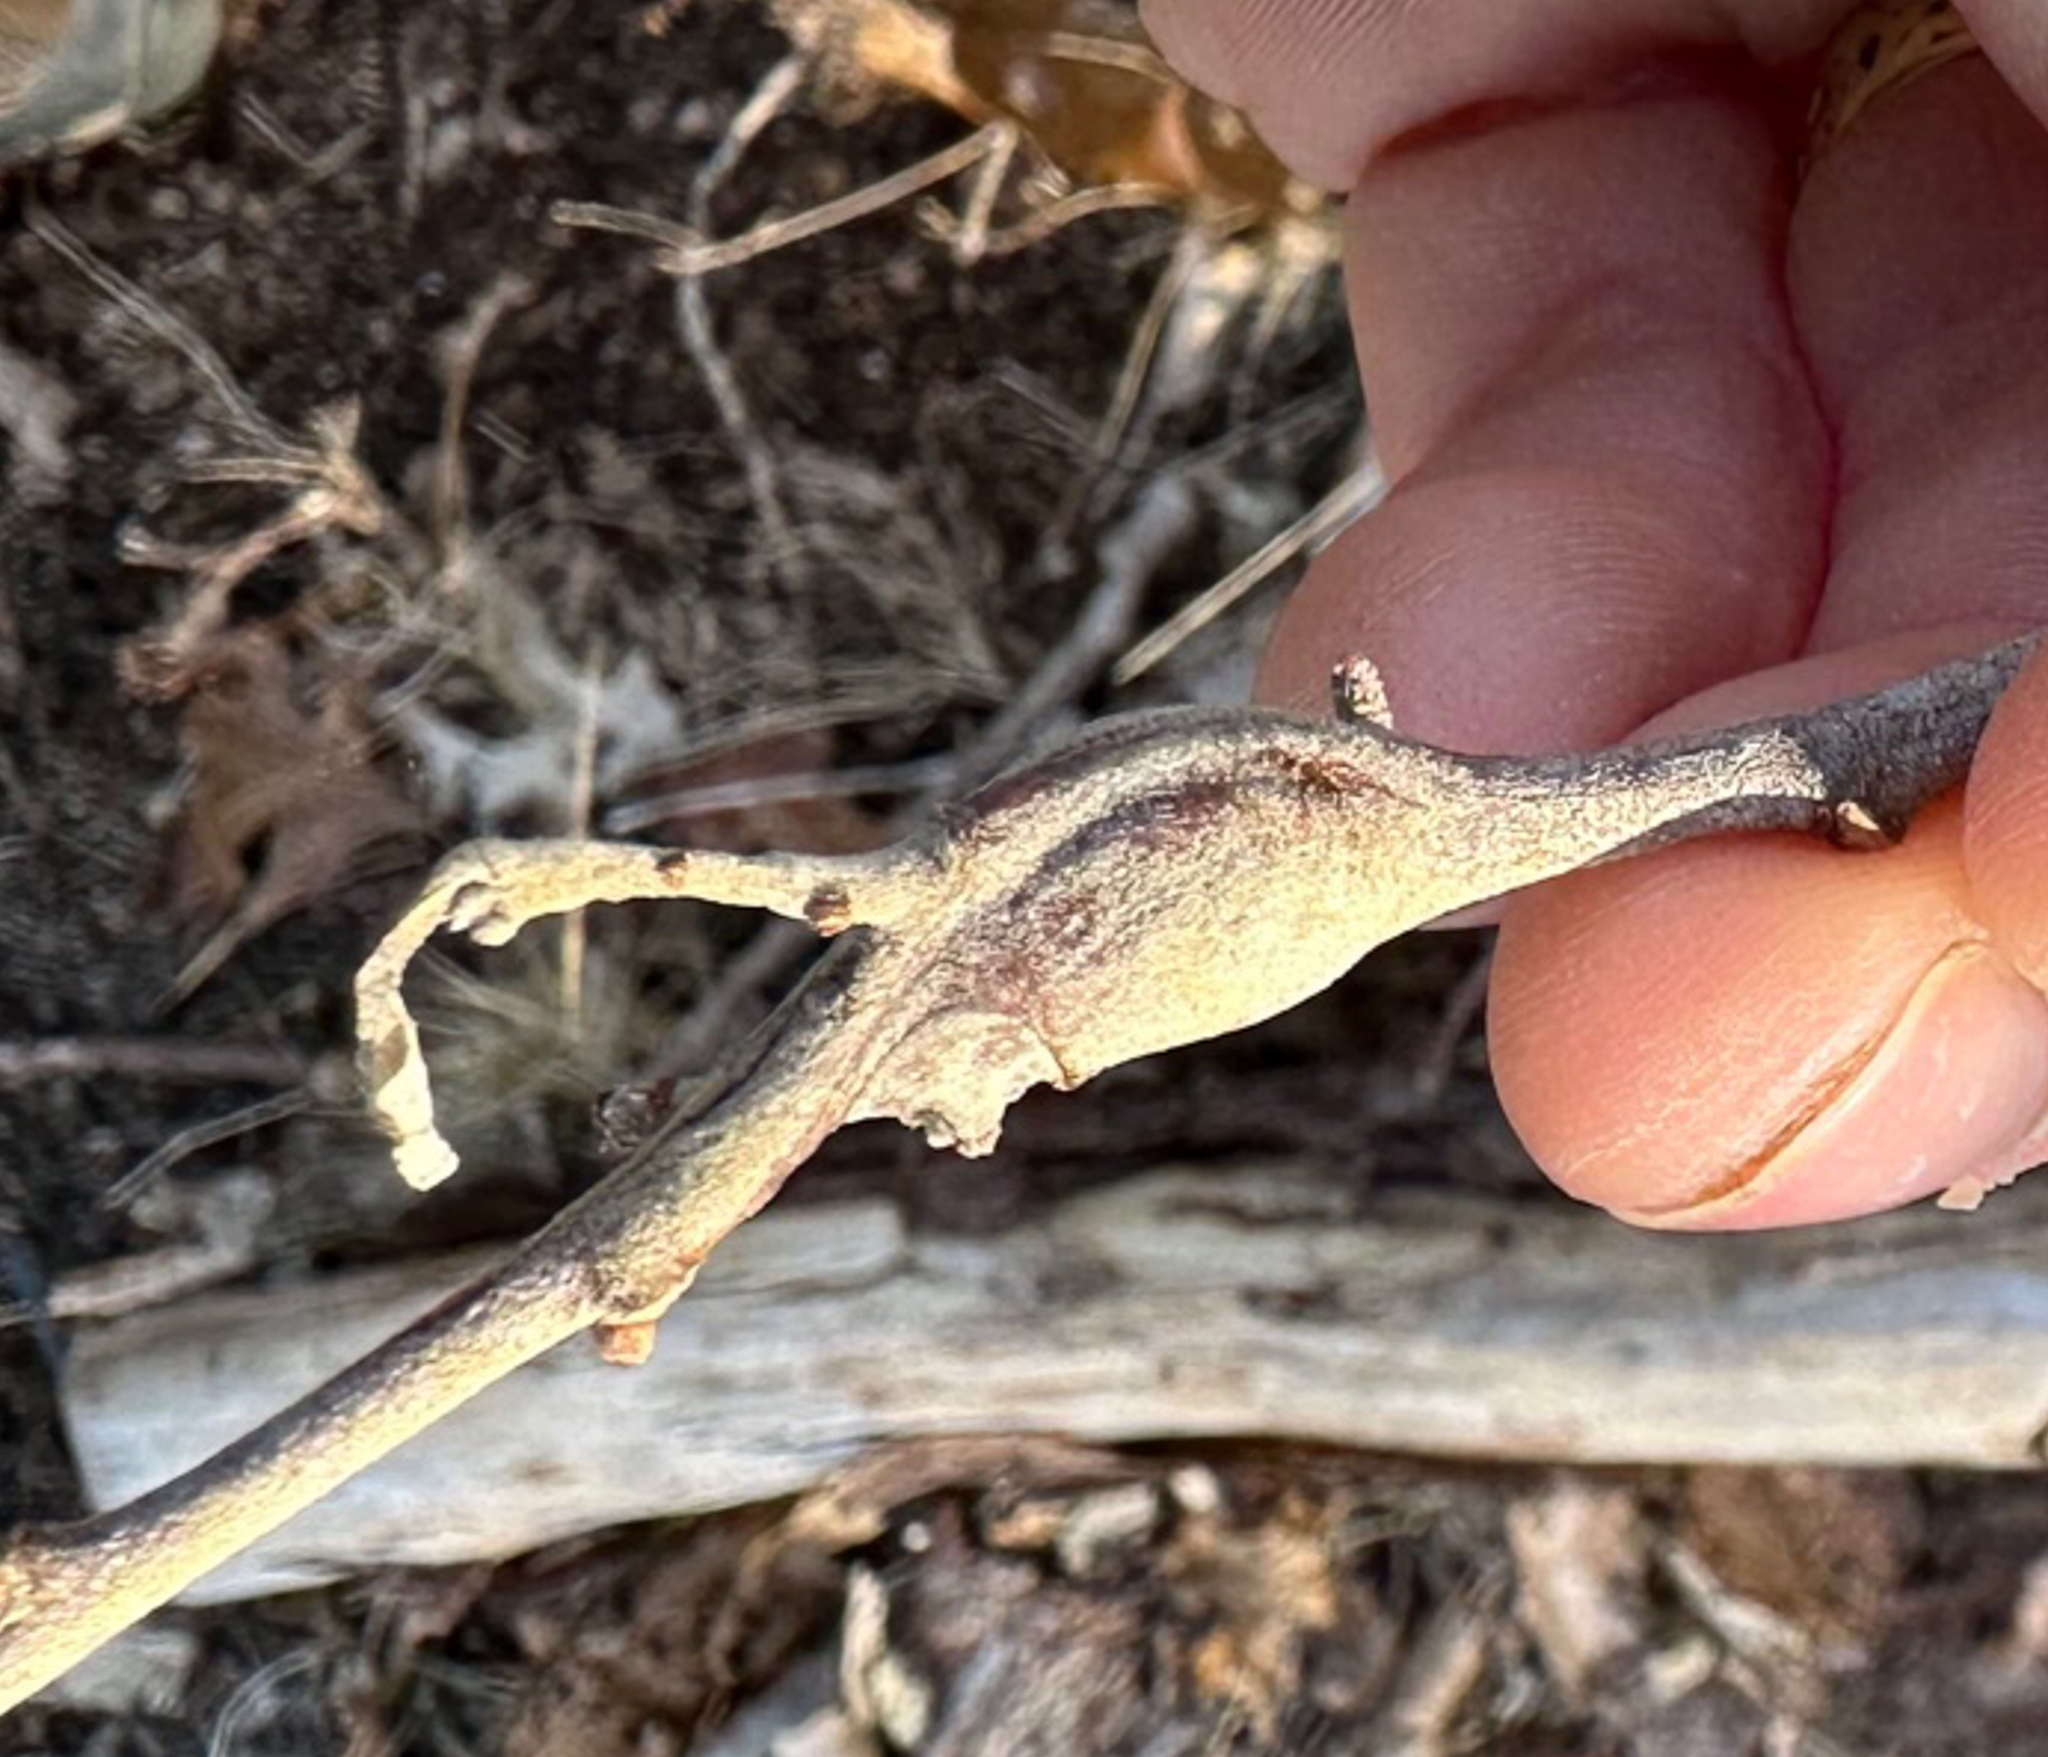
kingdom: Animalia
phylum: Arthropoda
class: Insecta
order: Hymenoptera
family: Cynipidae
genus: Zapatella
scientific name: Zapatella quercusphellos
